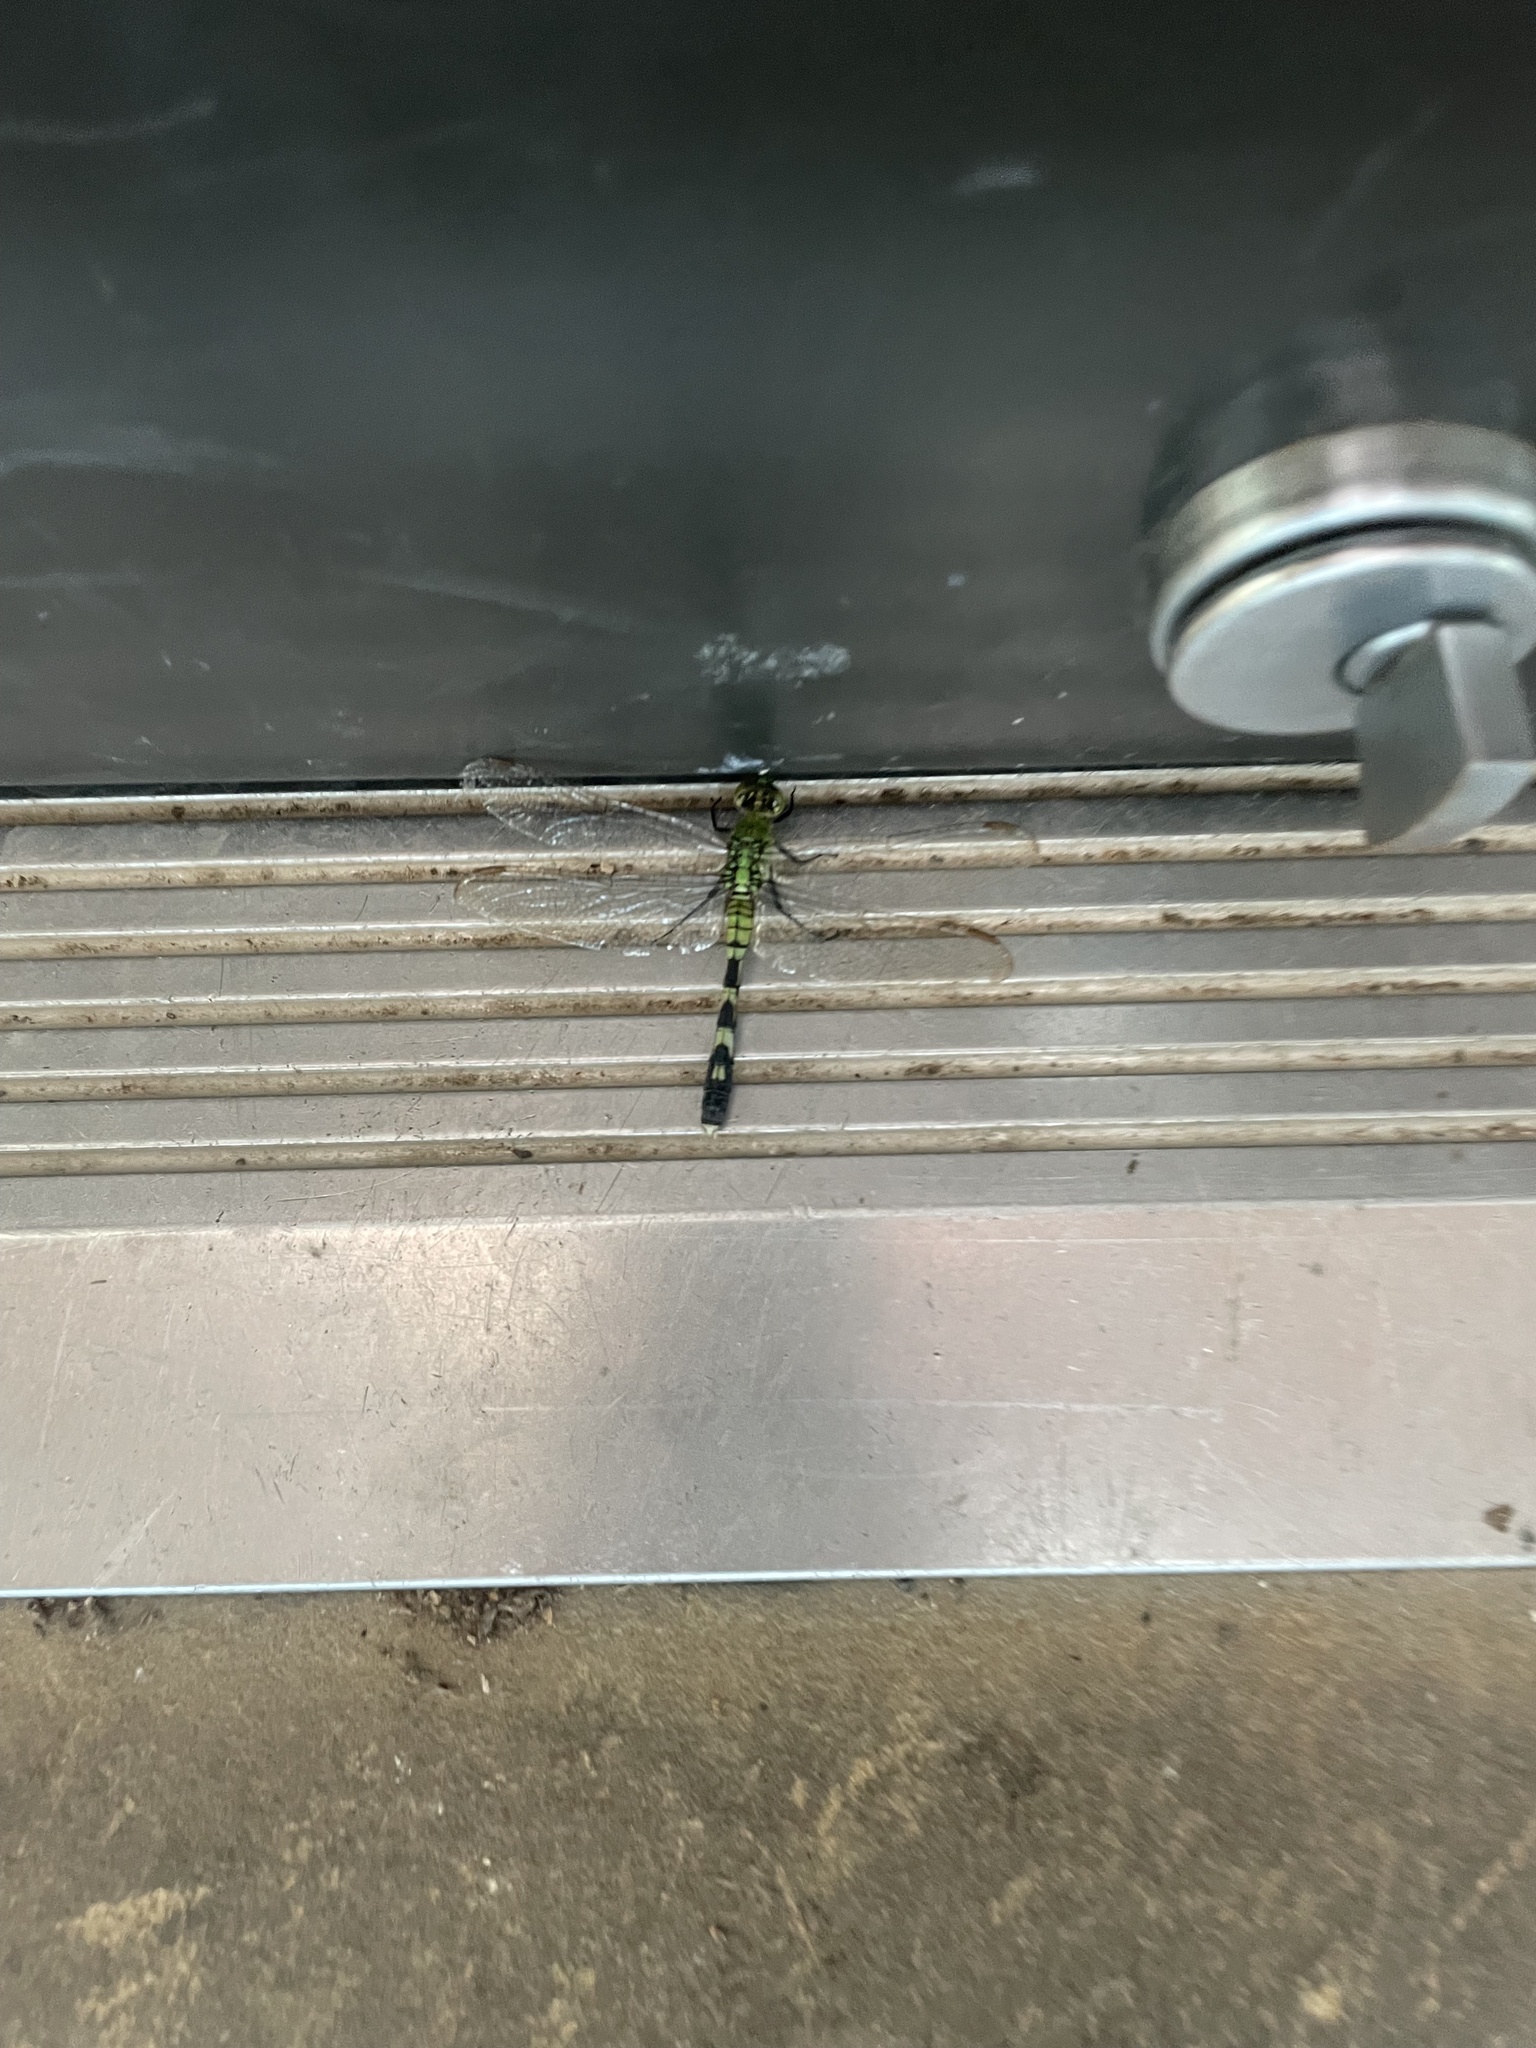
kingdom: Animalia
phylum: Arthropoda
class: Insecta
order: Odonata
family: Libellulidae
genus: Erythemis
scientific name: Erythemis simplicicollis
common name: Eastern pondhawk
